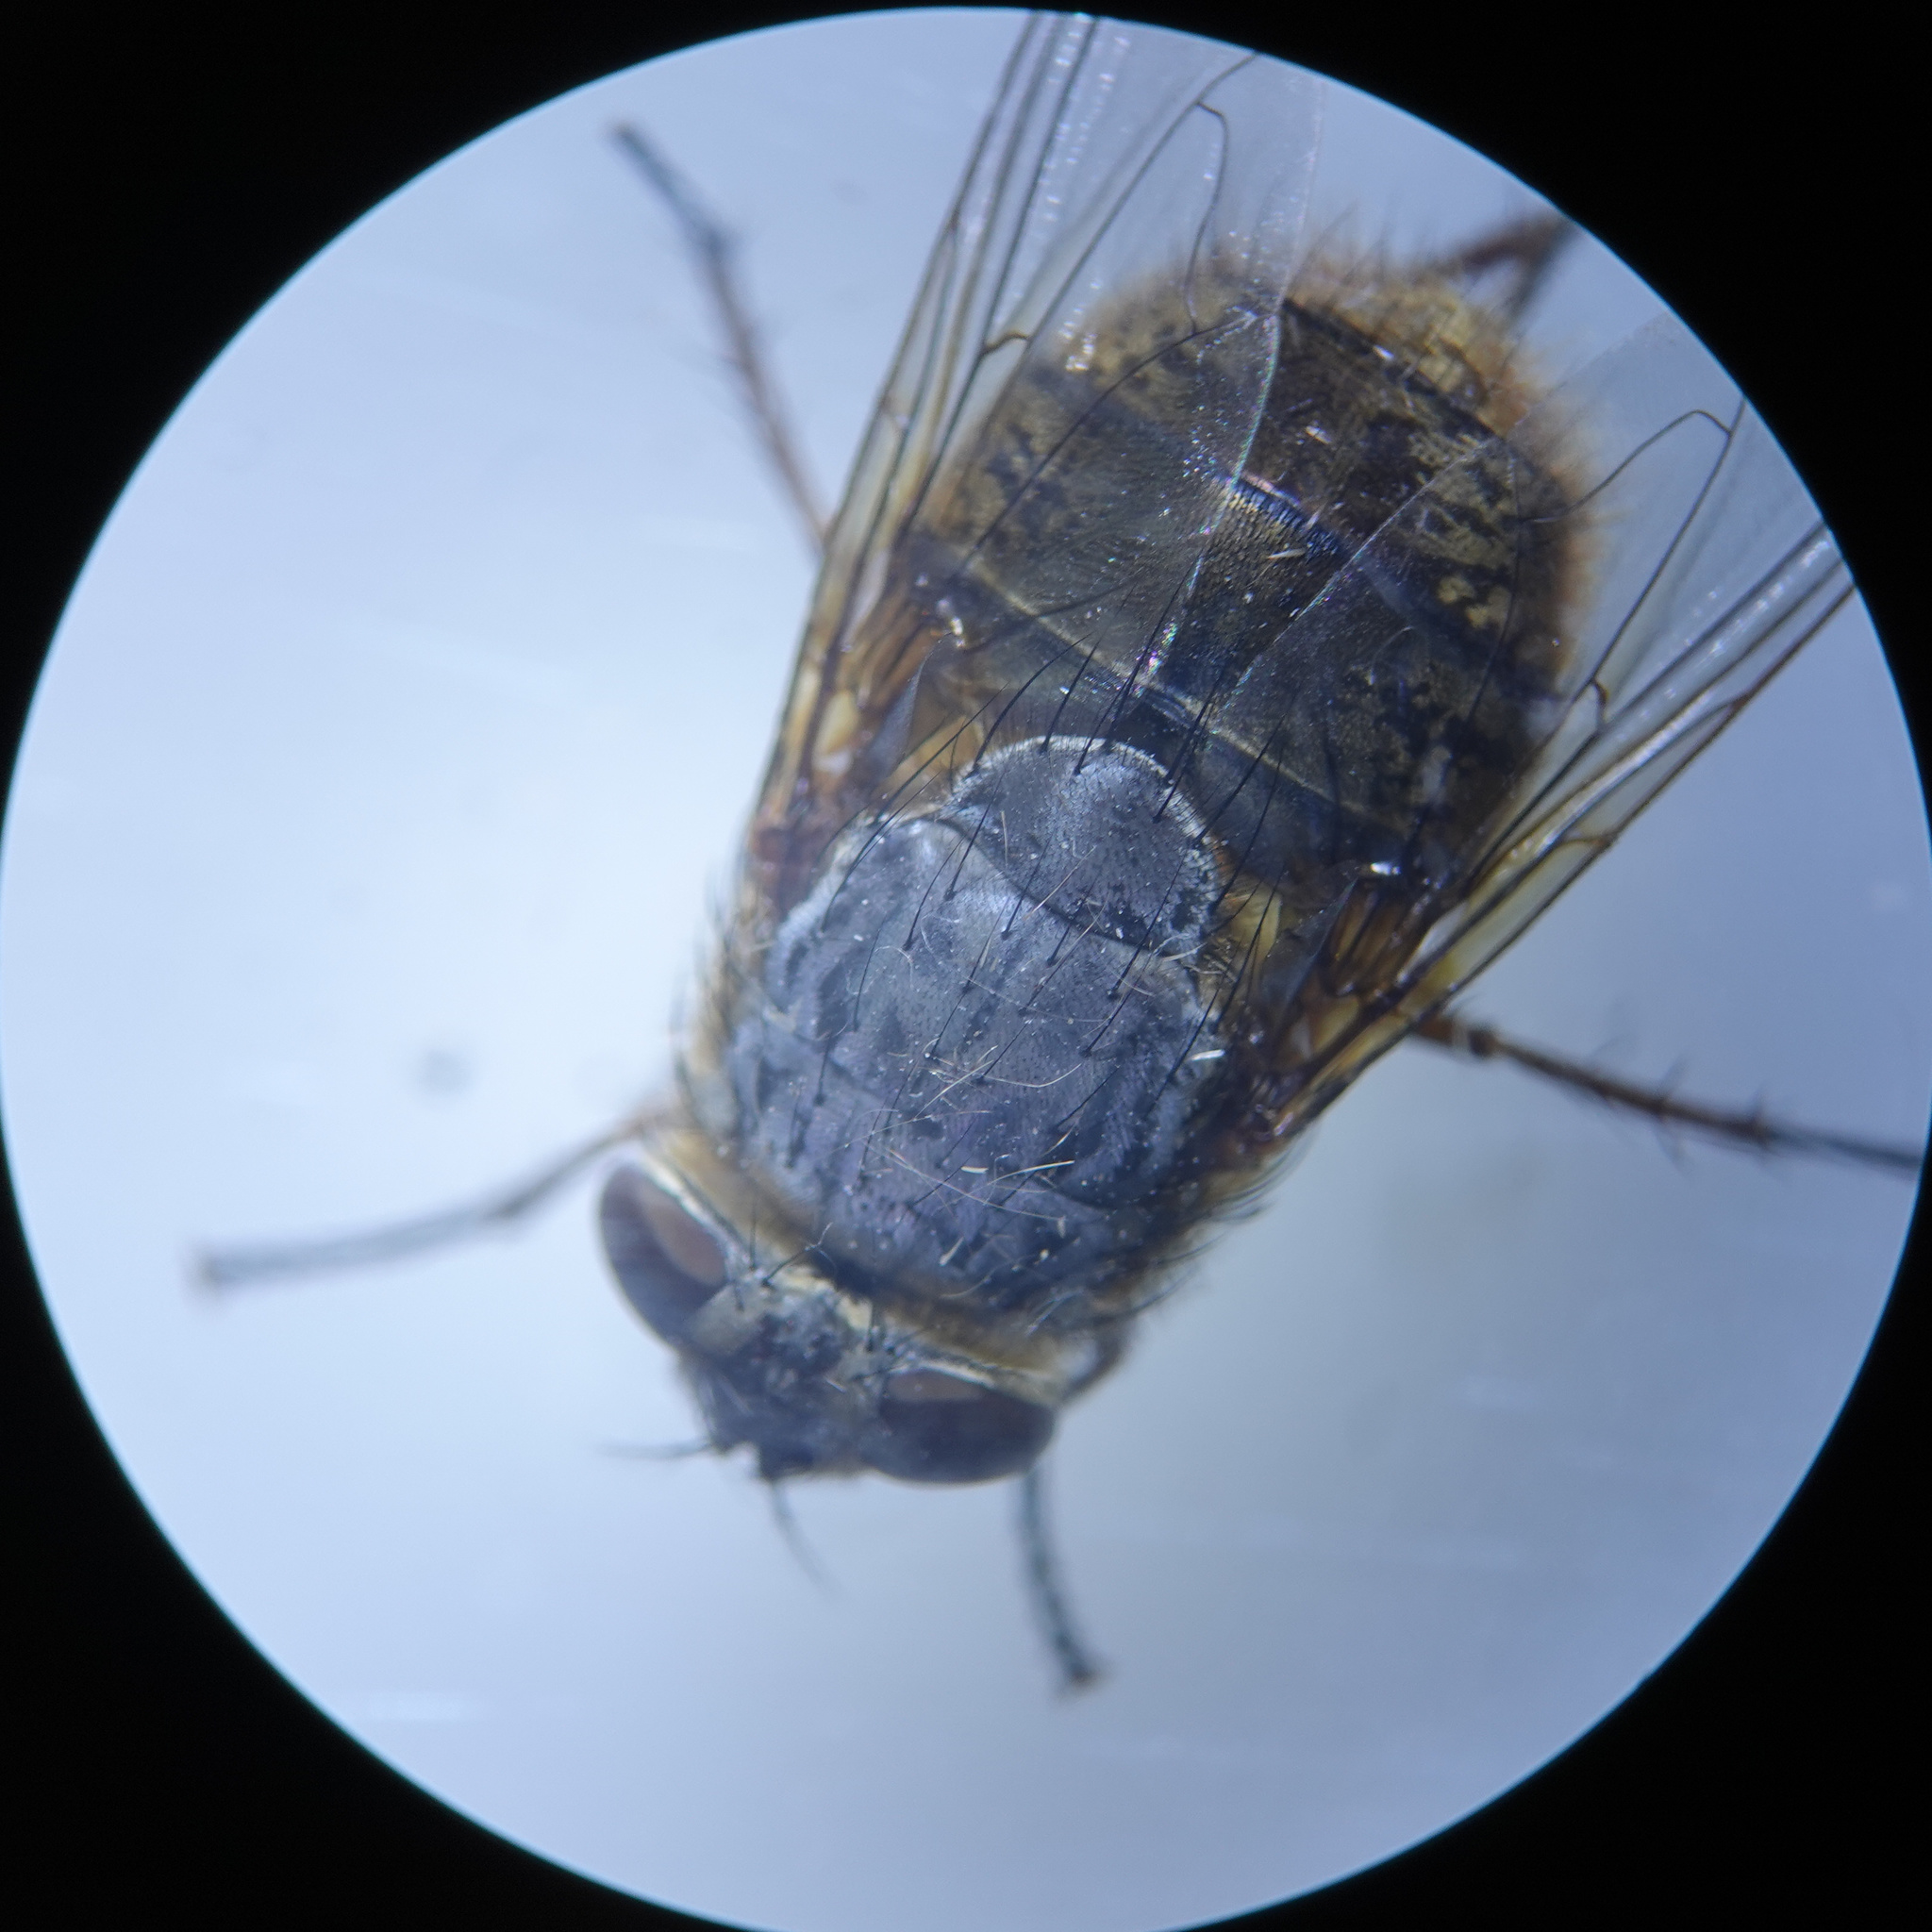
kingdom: Animalia
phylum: Arthropoda
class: Insecta
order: Diptera
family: Calliphoridae
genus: Calliphora
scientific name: Calliphora hilli
